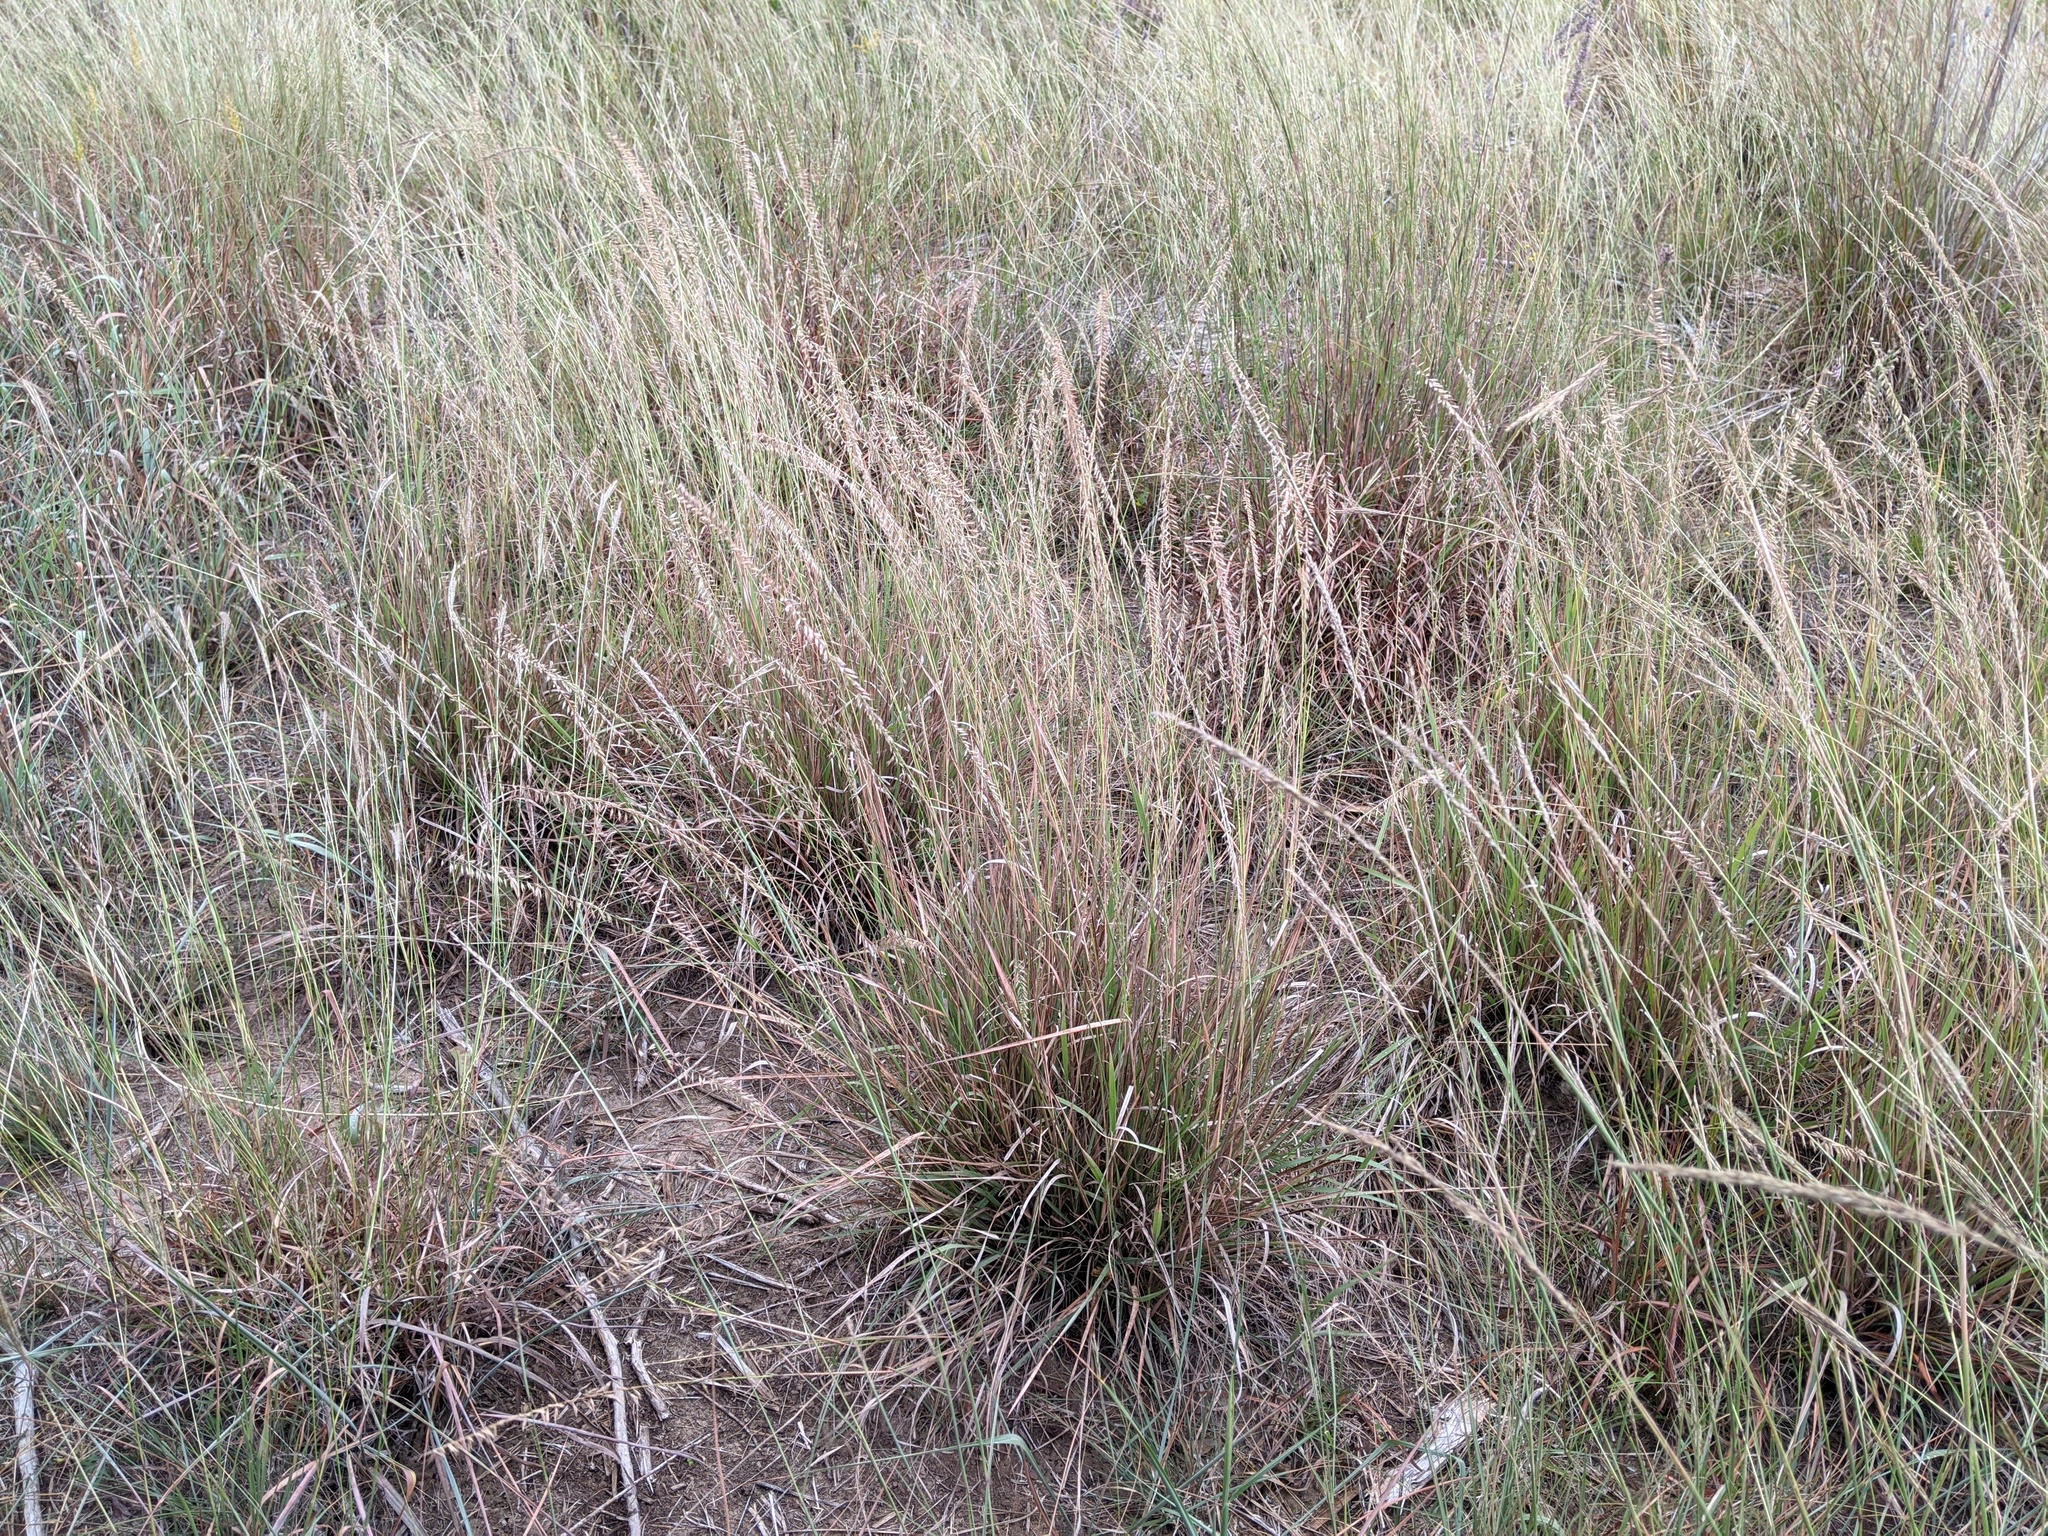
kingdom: Plantae
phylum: Tracheophyta
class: Liliopsida
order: Poales
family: Poaceae
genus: Bouteloua
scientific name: Bouteloua curtipendula
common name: Side-oats grama
